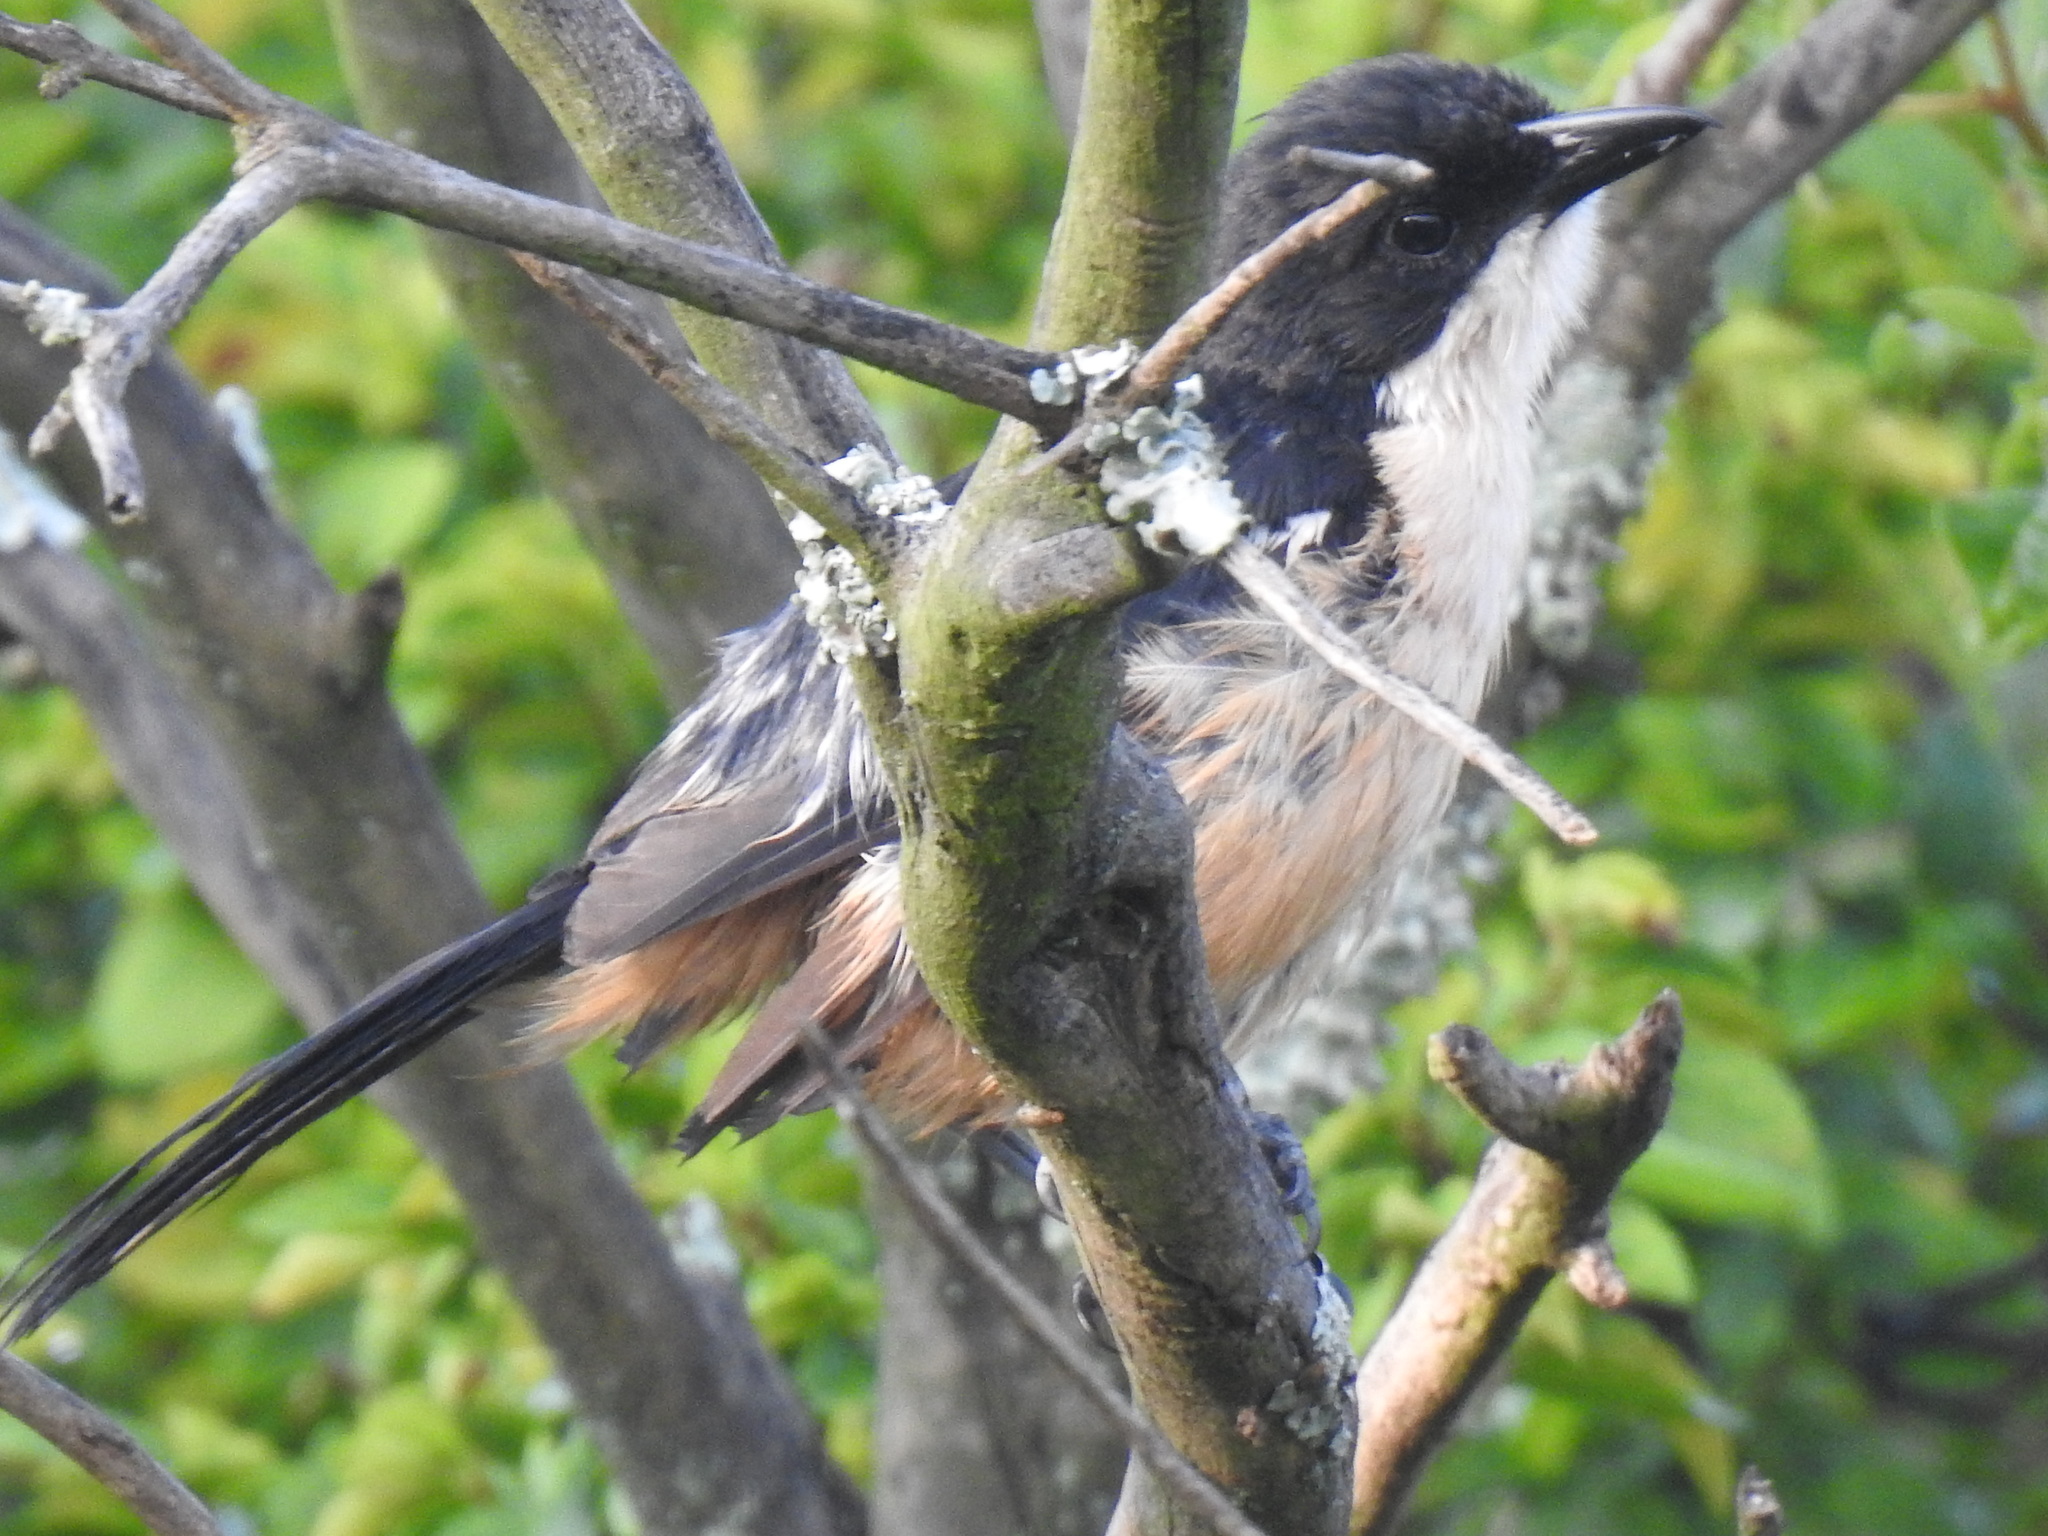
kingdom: Animalia
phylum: Chordata
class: Aves
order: Passeriformes
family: Malaconotidae
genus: Laniarius
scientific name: Laniarius ferrugineus
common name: Southern boubou
